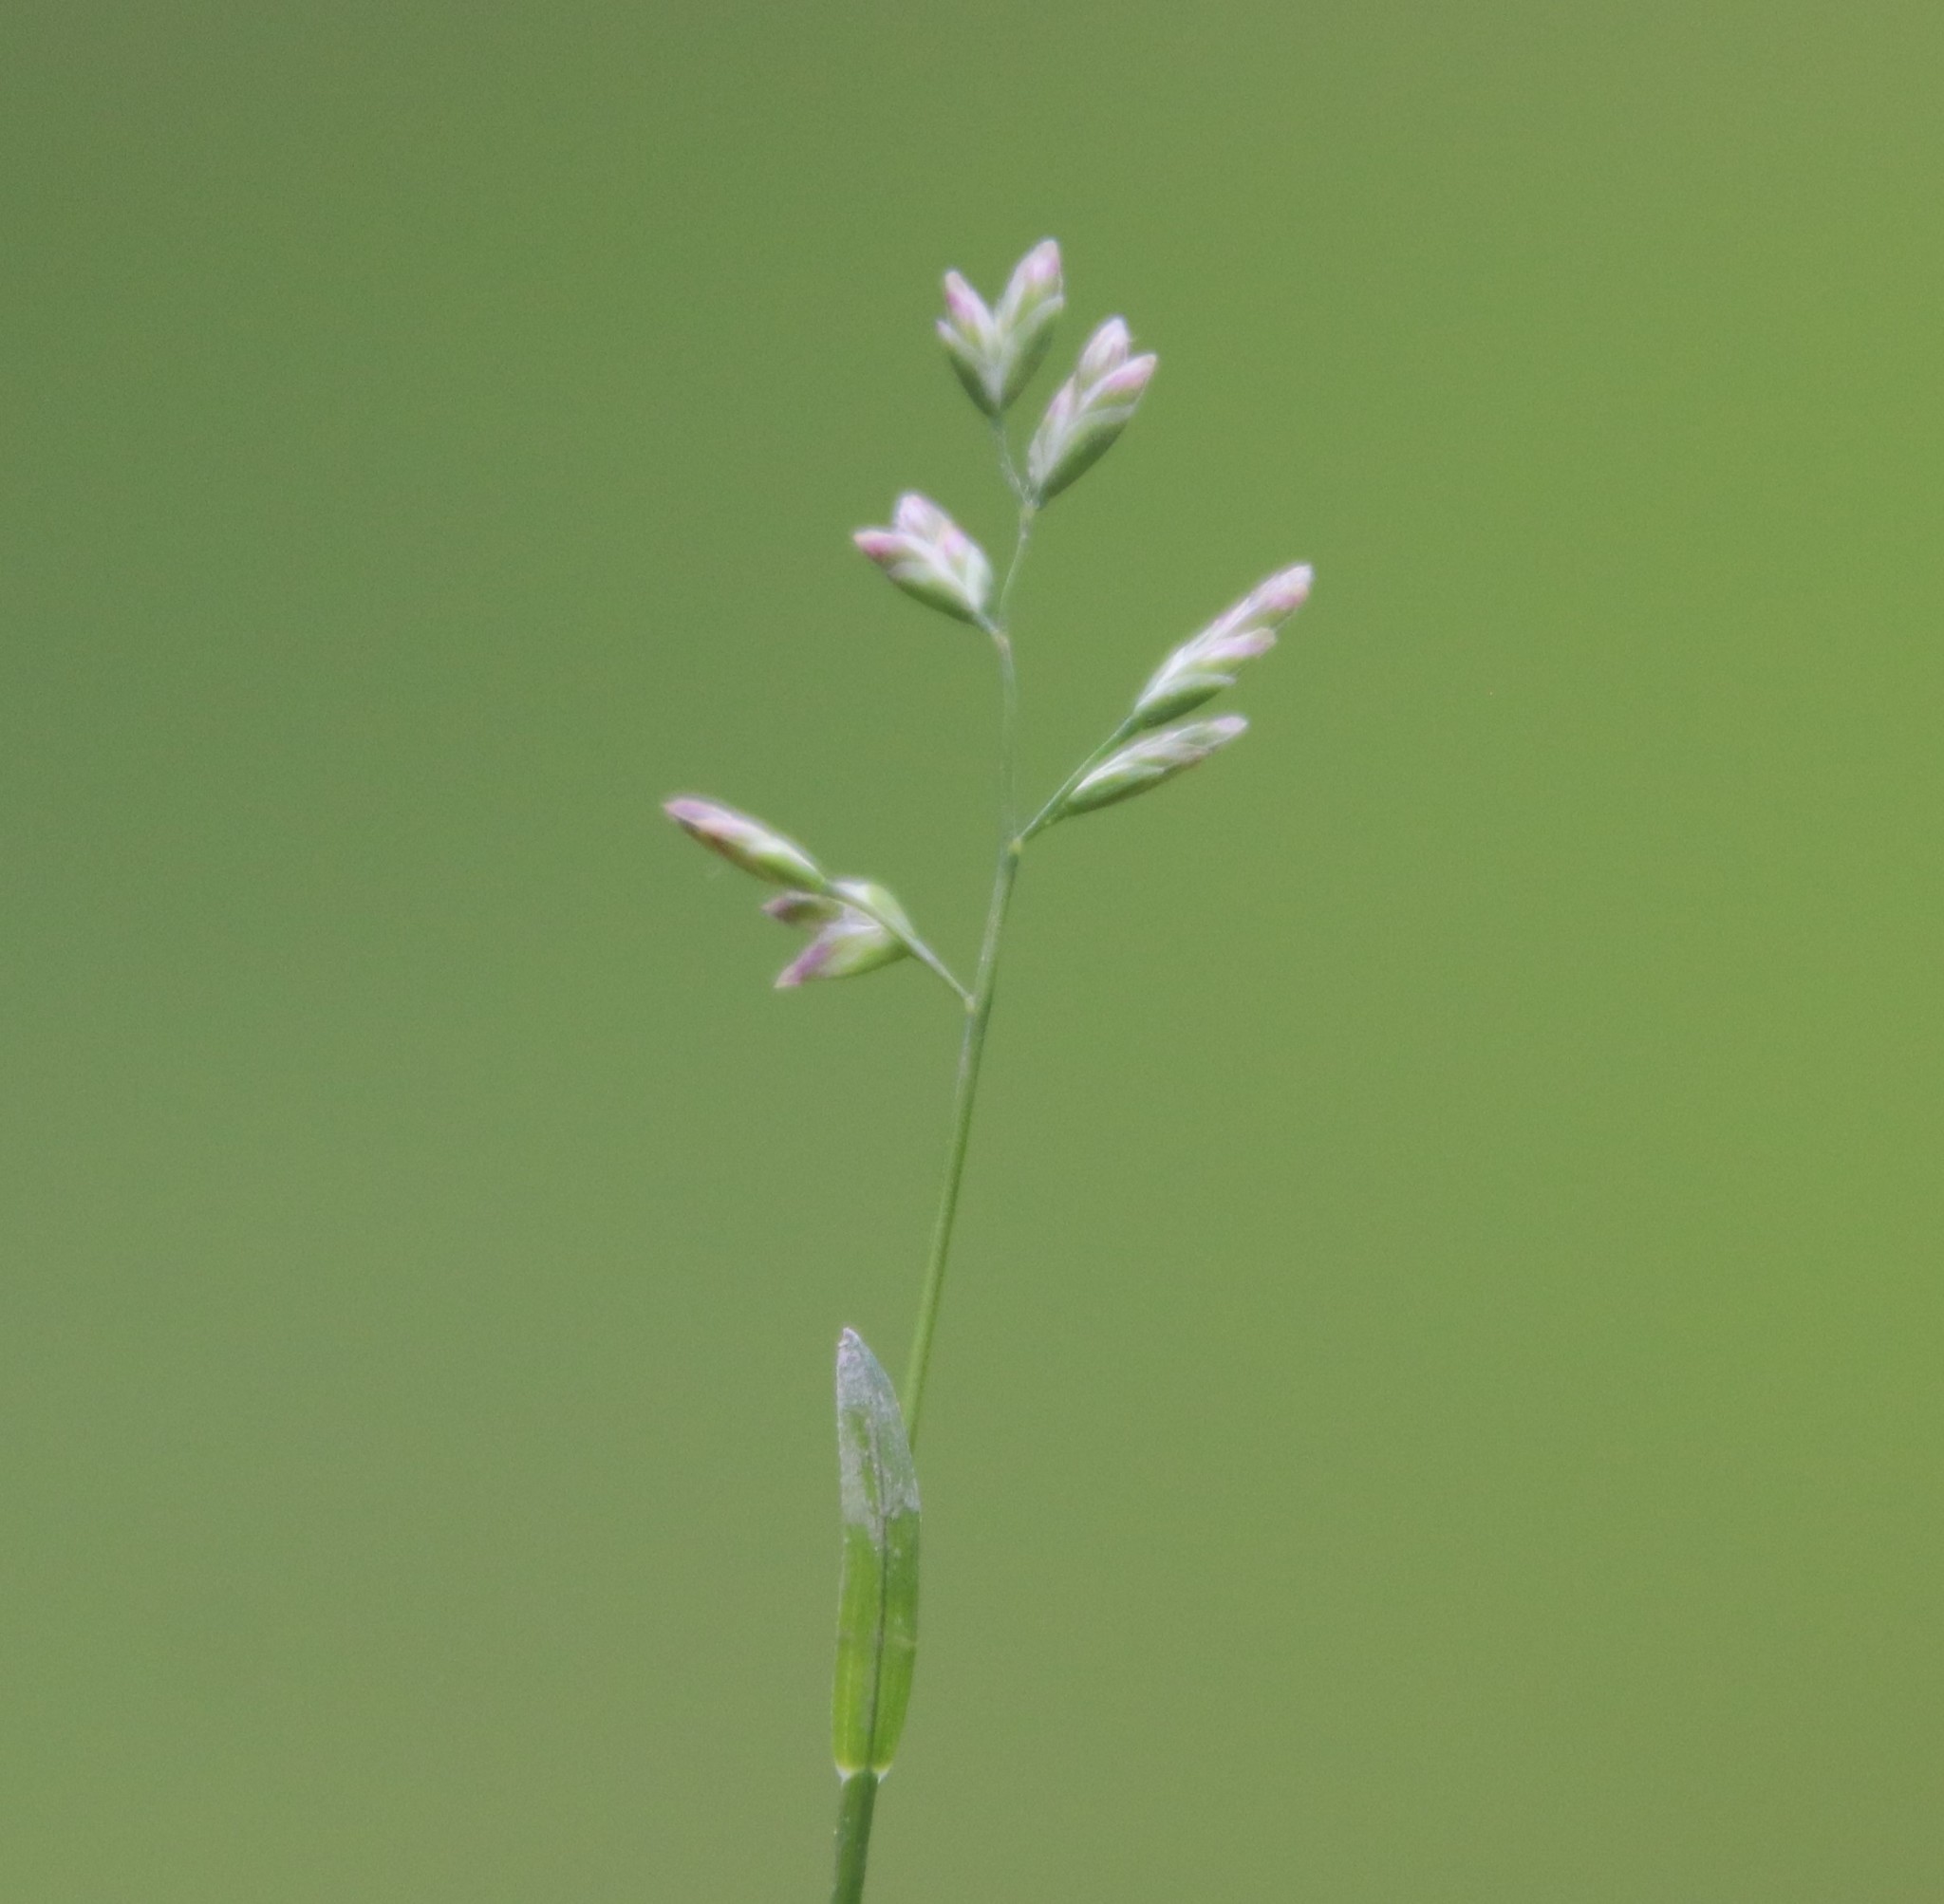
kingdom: Plantae
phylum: Tracheophyta
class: Liliopsida
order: Poales
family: Poaceae
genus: Poa
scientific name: Poa annua
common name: Annual bluegrass
